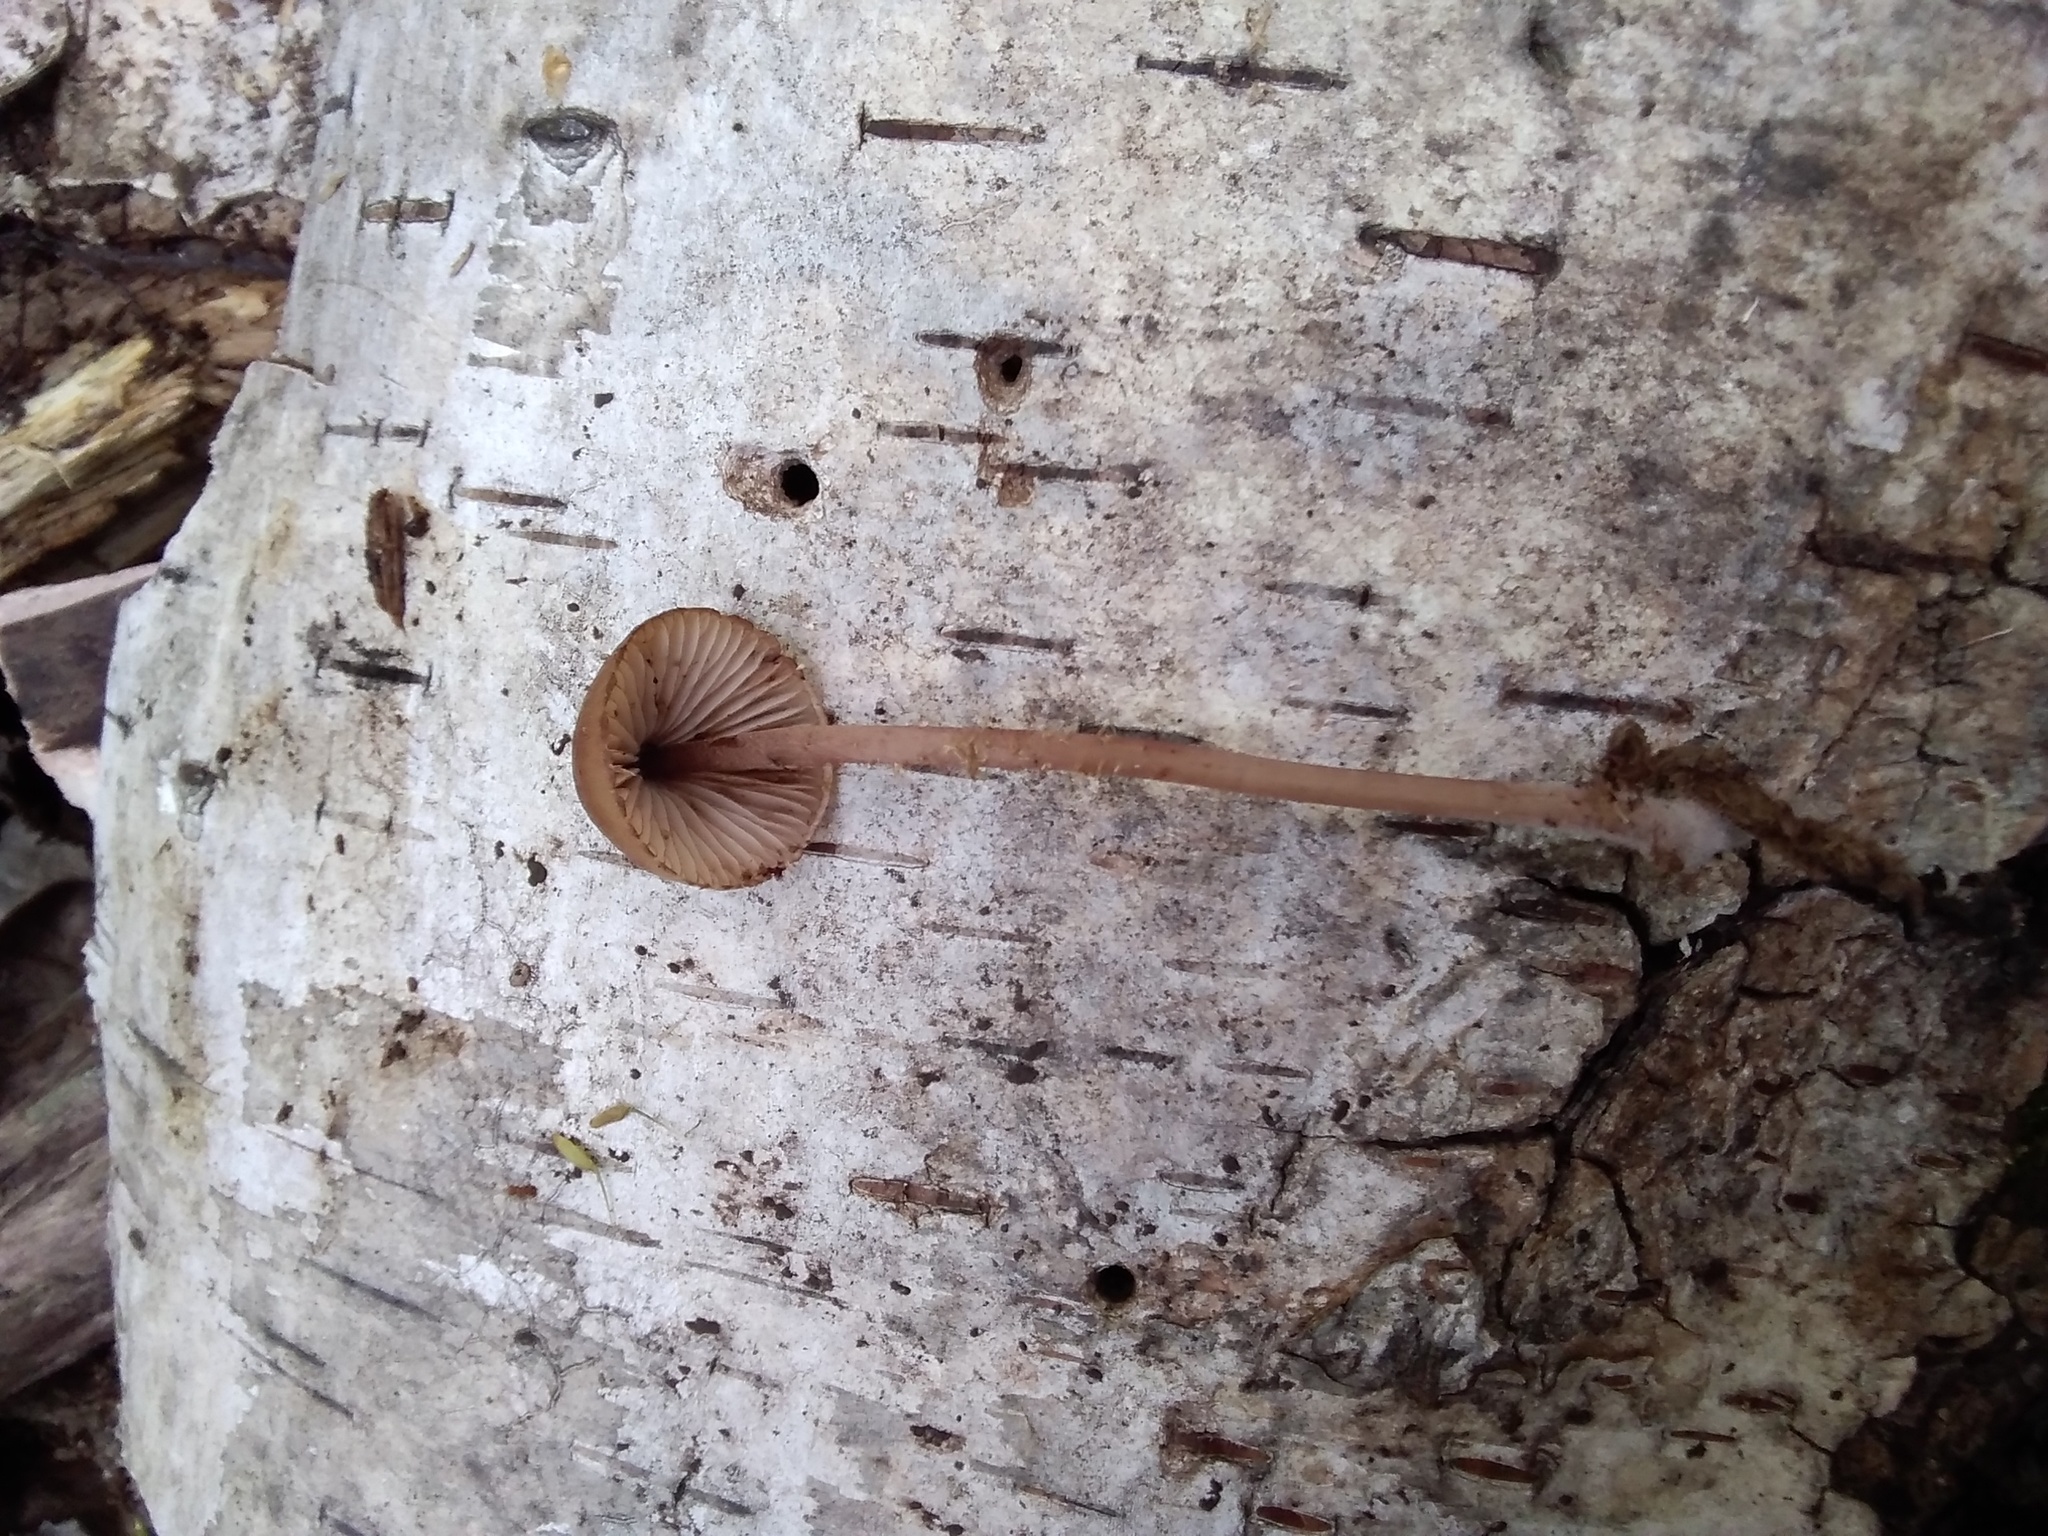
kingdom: Fungi
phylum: Basidiomycota
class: Agaricomycetes
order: Agaricales
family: Mycenaceae
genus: Mycena
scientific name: Mycena haematopus
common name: Burgundydrop bonnet
